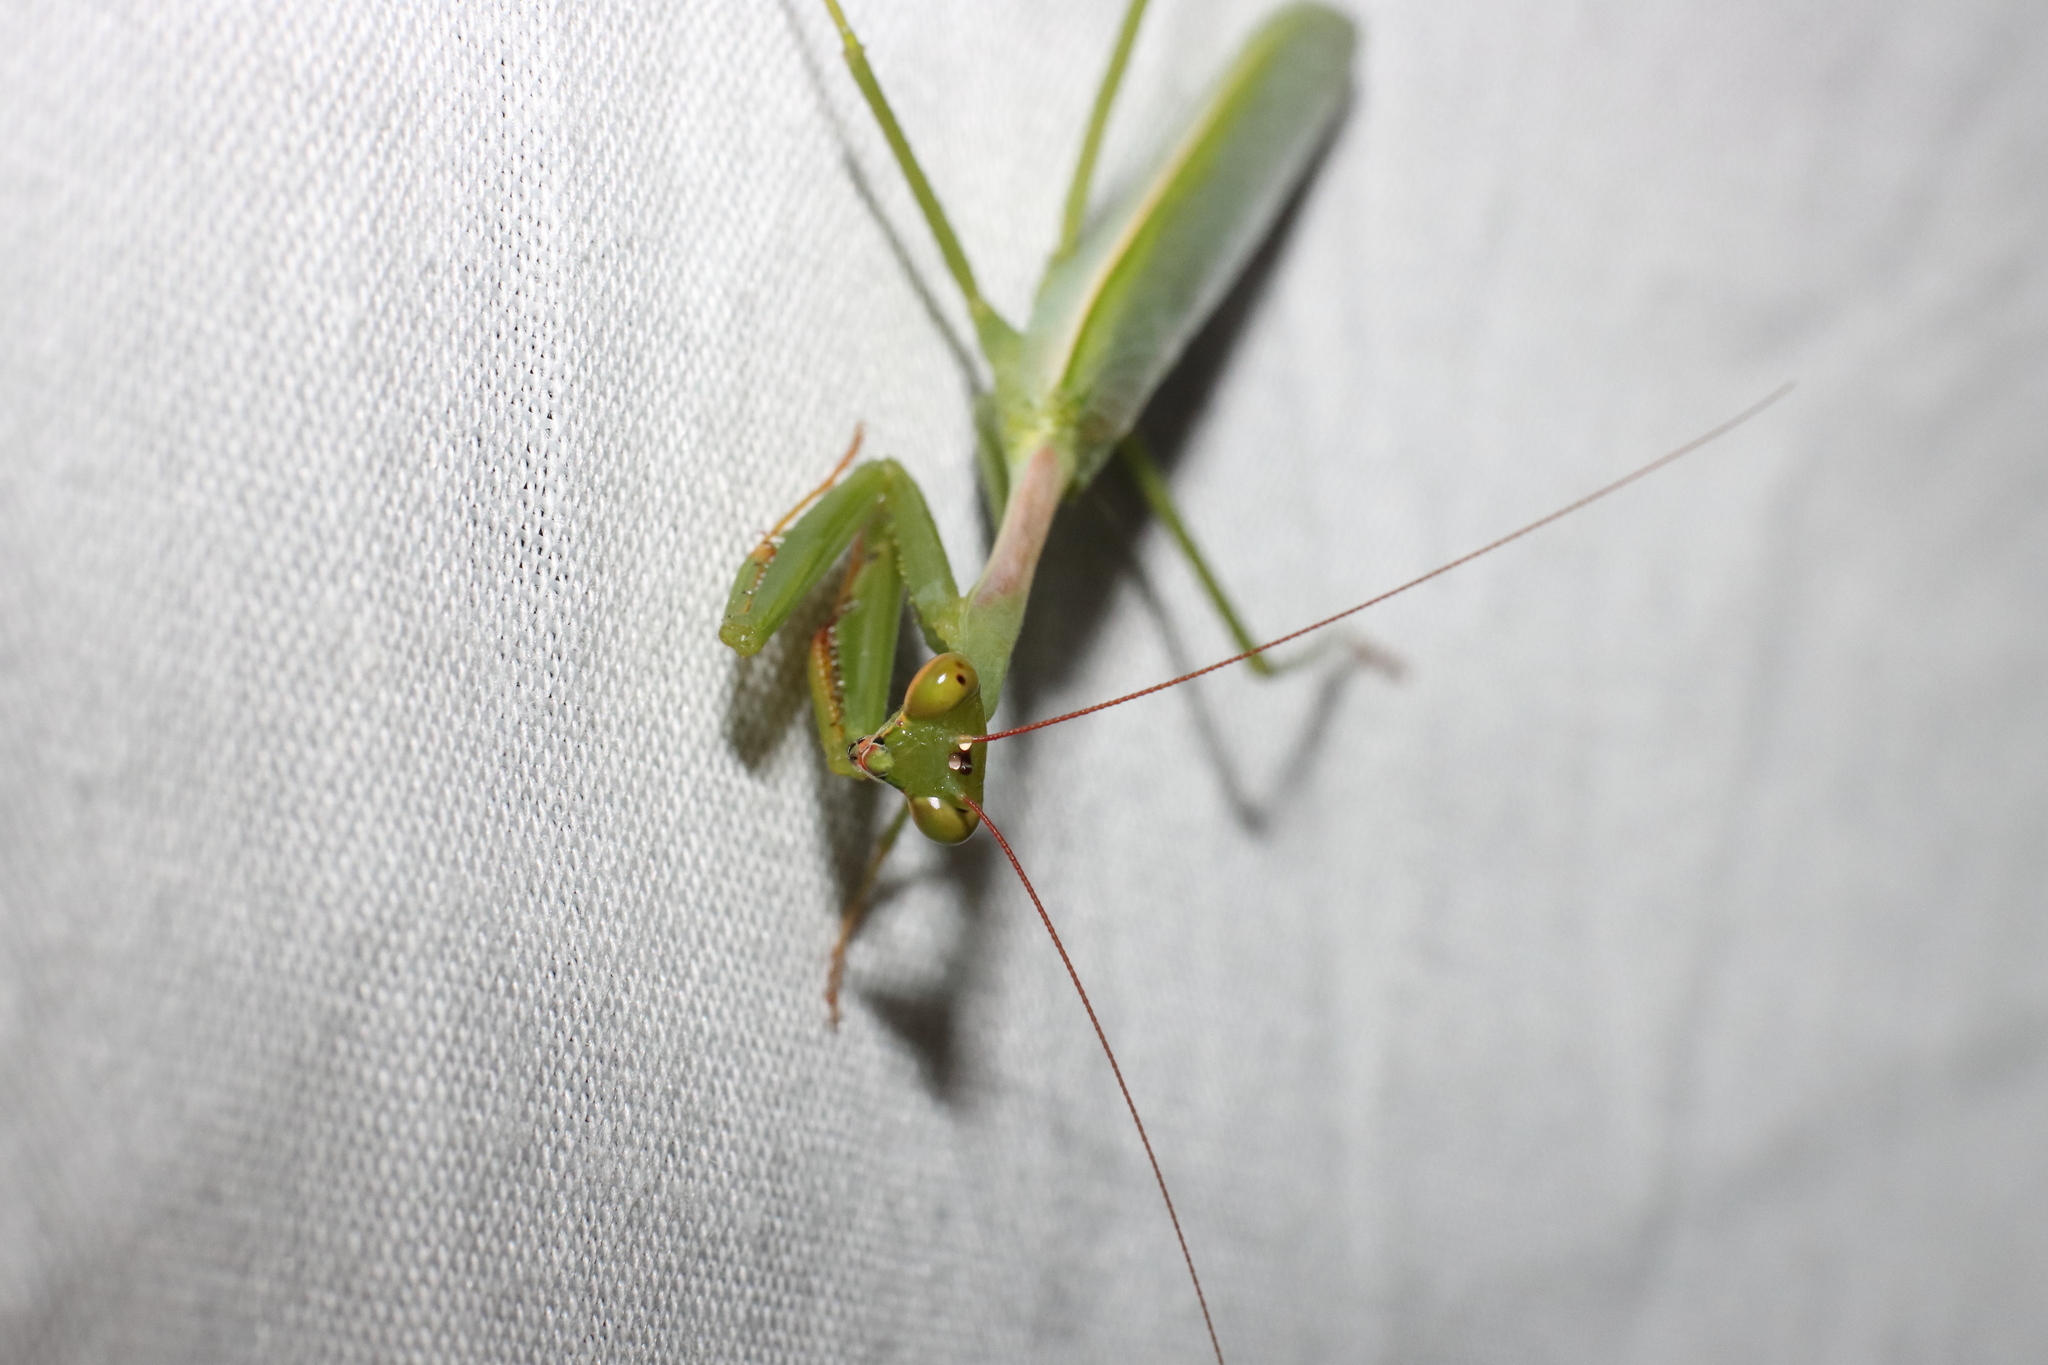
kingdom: Animalia
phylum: Arthropoda
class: Insecta
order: Mantodea
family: Miomantidae
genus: Miomantis
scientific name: Miomantis caffra
